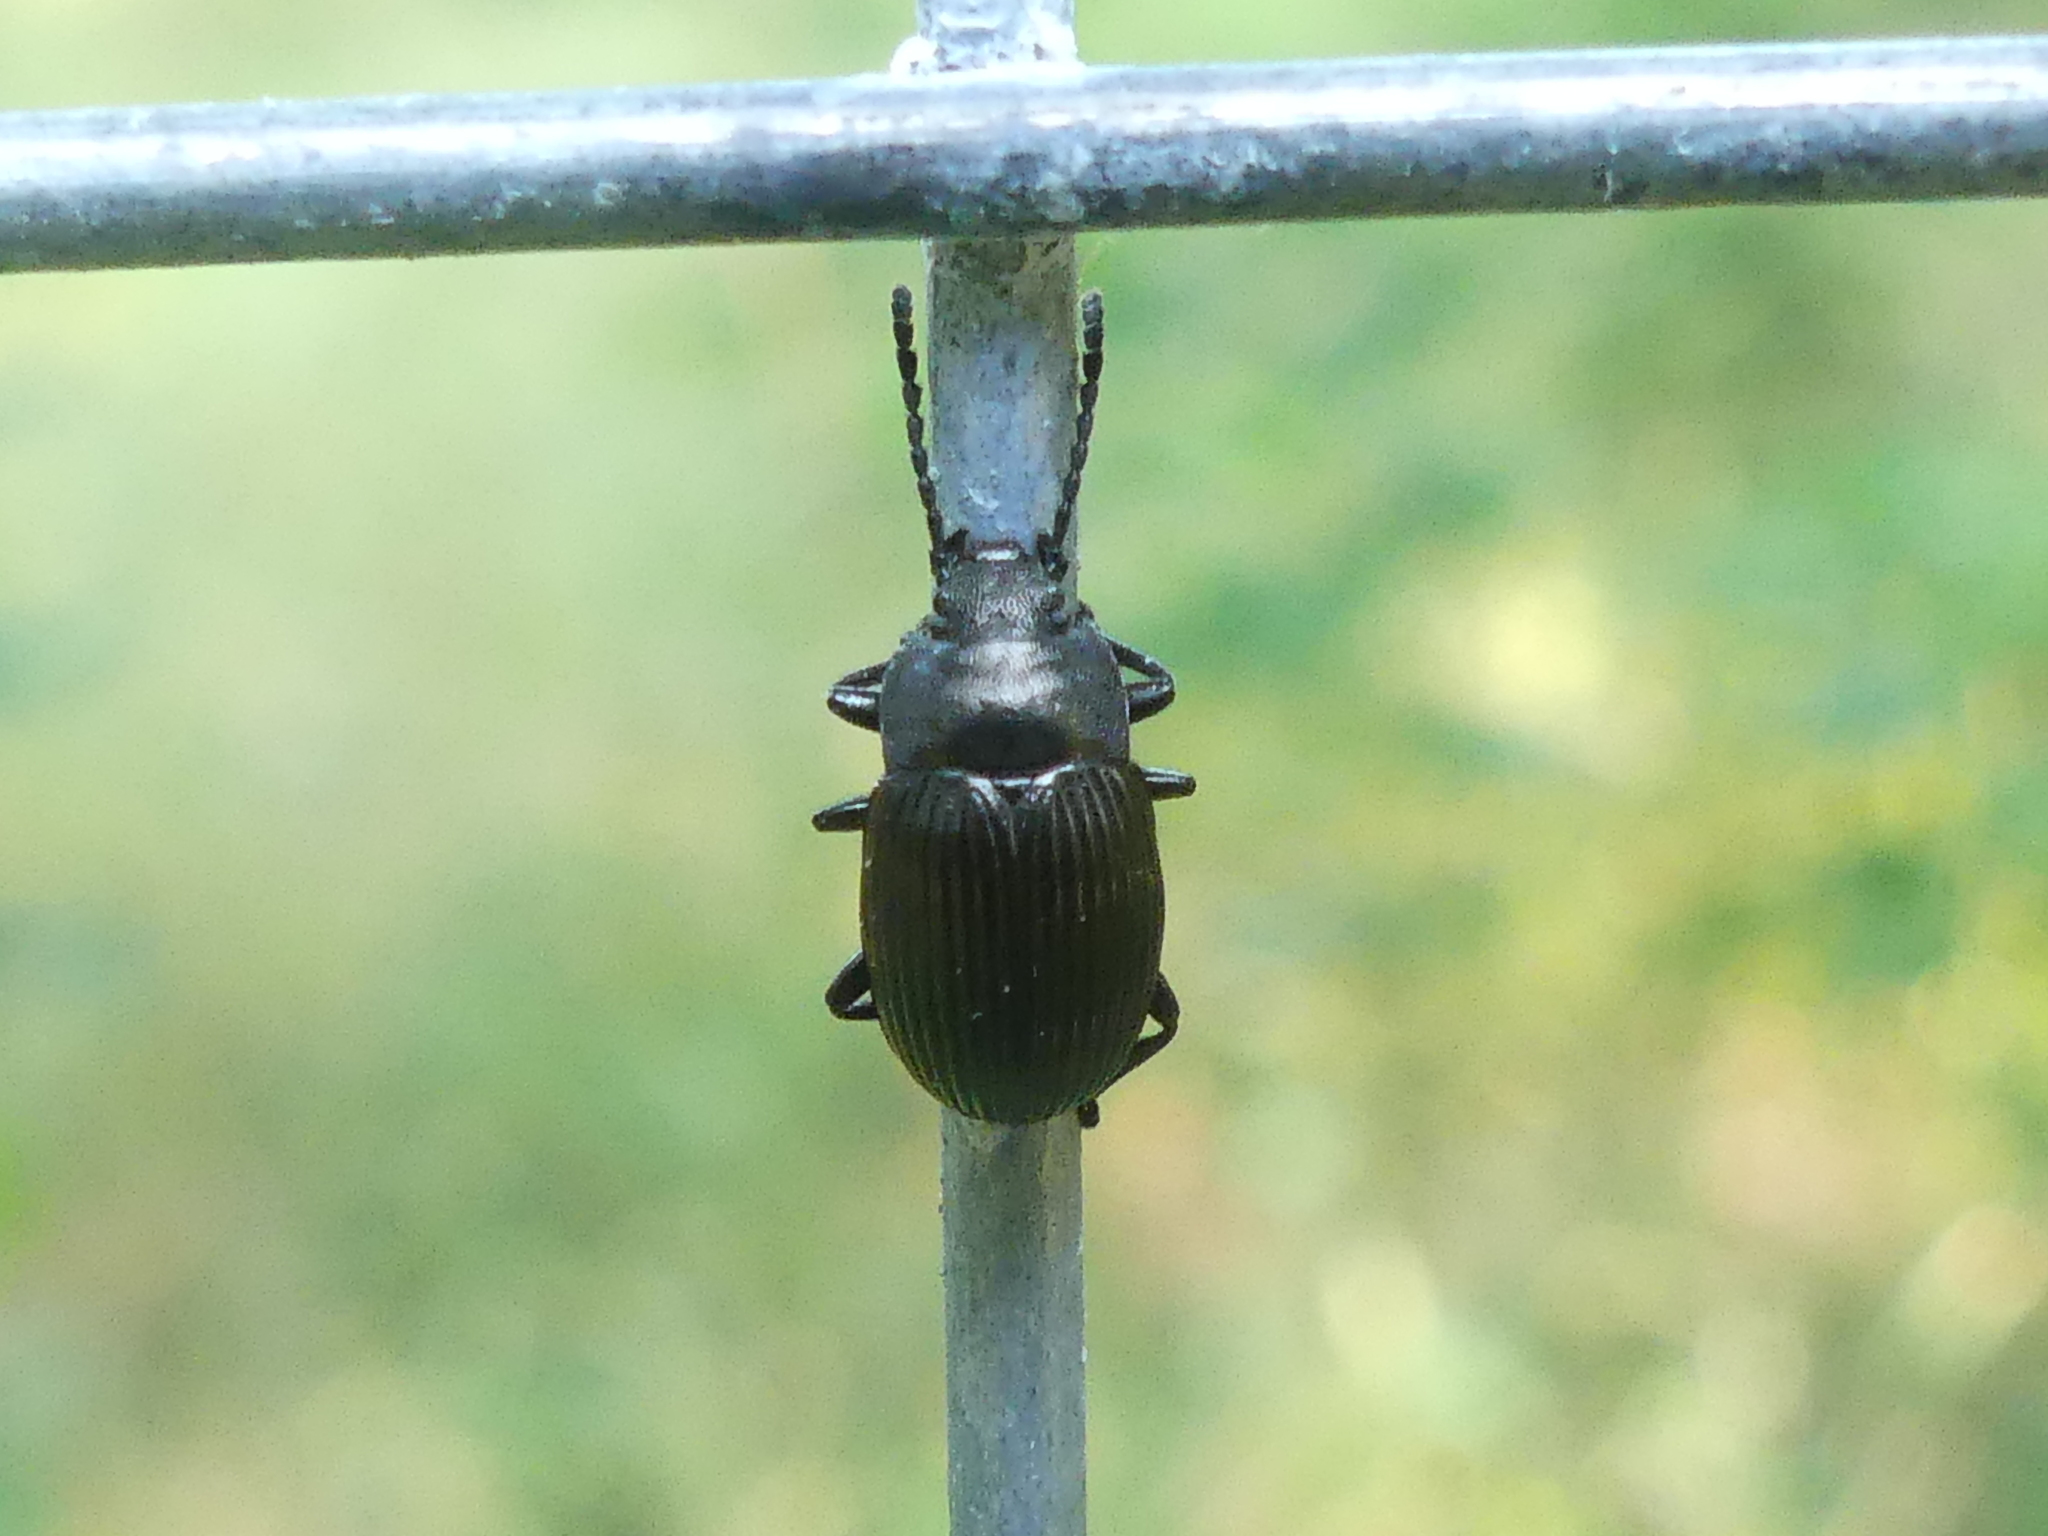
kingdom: Animalia
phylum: Arthropoda
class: Insecta
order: Coleoptera
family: Tenebrionidae
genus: Helops
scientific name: Helops farctus
